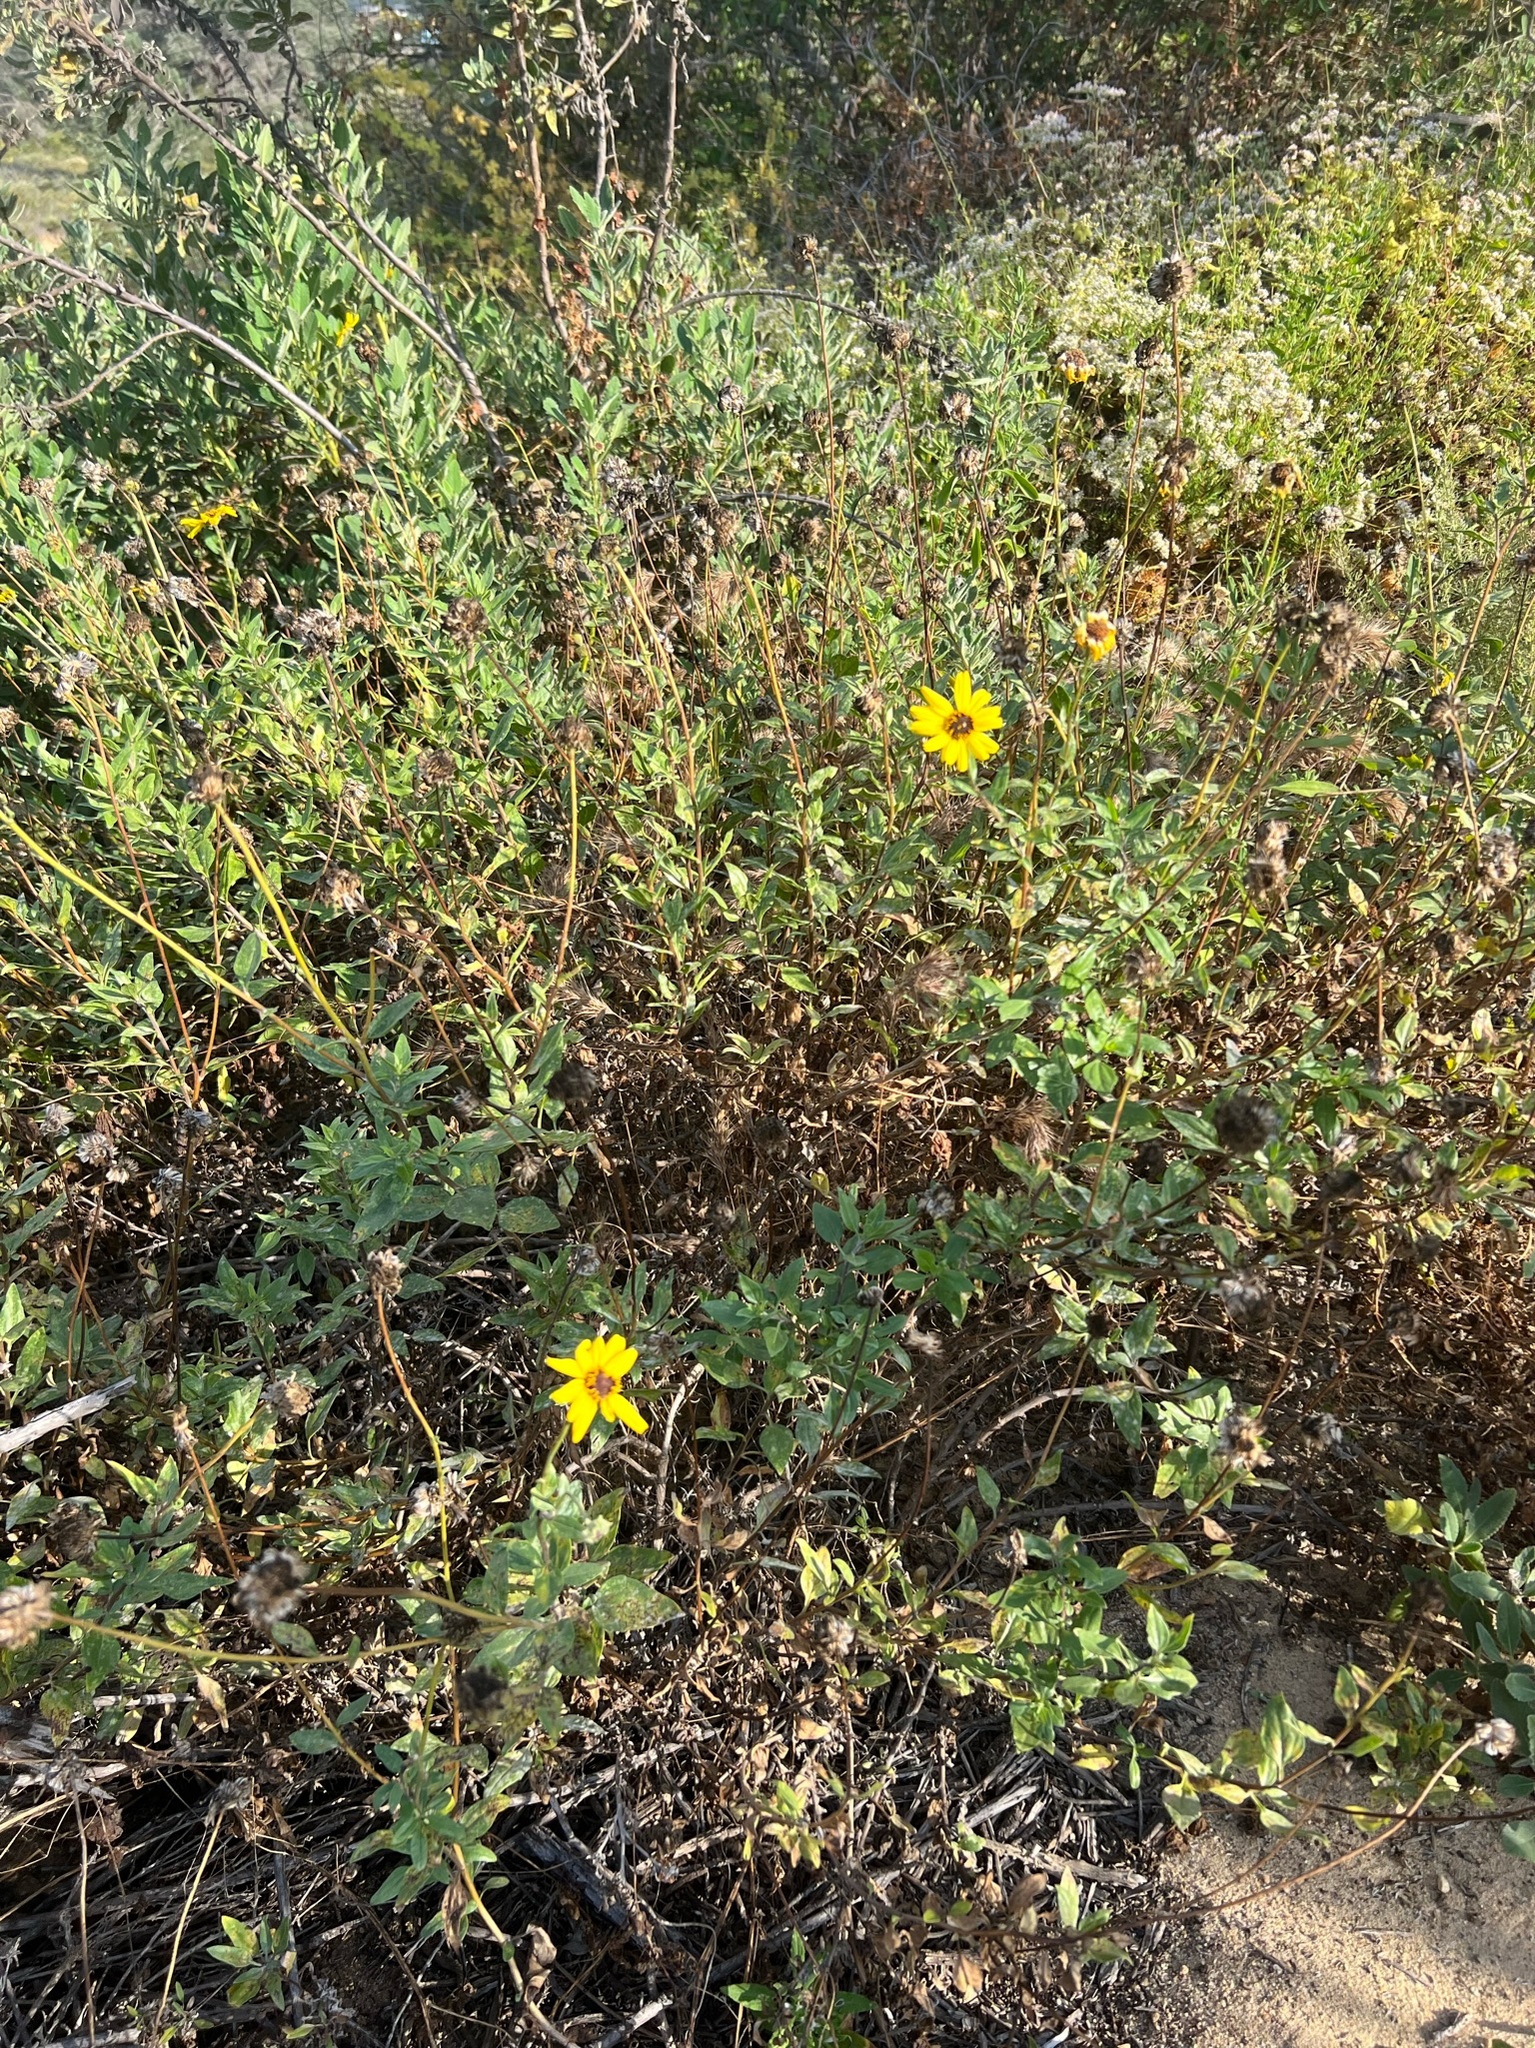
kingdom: Plantae
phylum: Tracheophyta
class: Magnoliopsida
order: Asterales
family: Asteraceae
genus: Encelia
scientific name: Encelia californica
